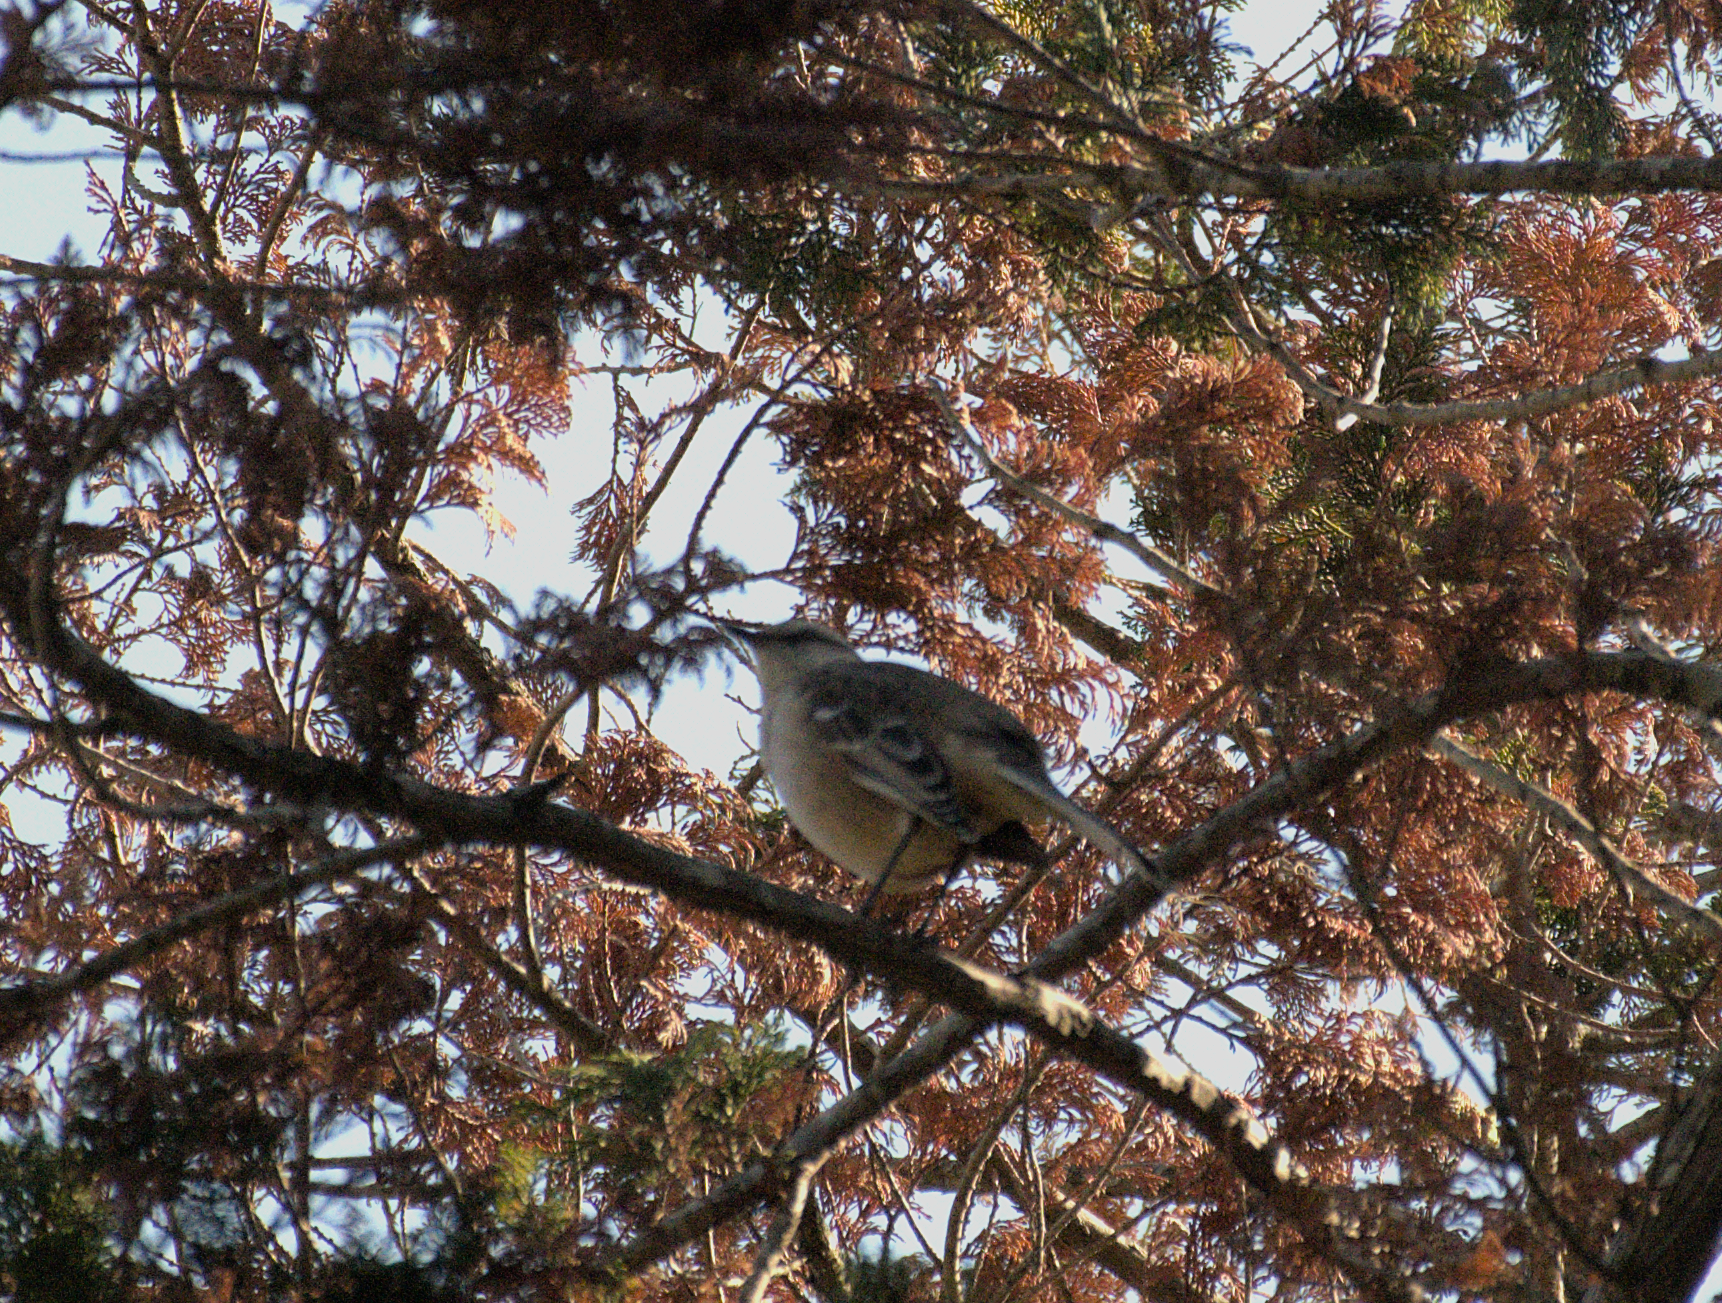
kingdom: Animalia
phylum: Chordata
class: Aves
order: Passeriformes
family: Mimidae
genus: Mimus
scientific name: Mimus saturninus
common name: Chalk-browed mockingbird
